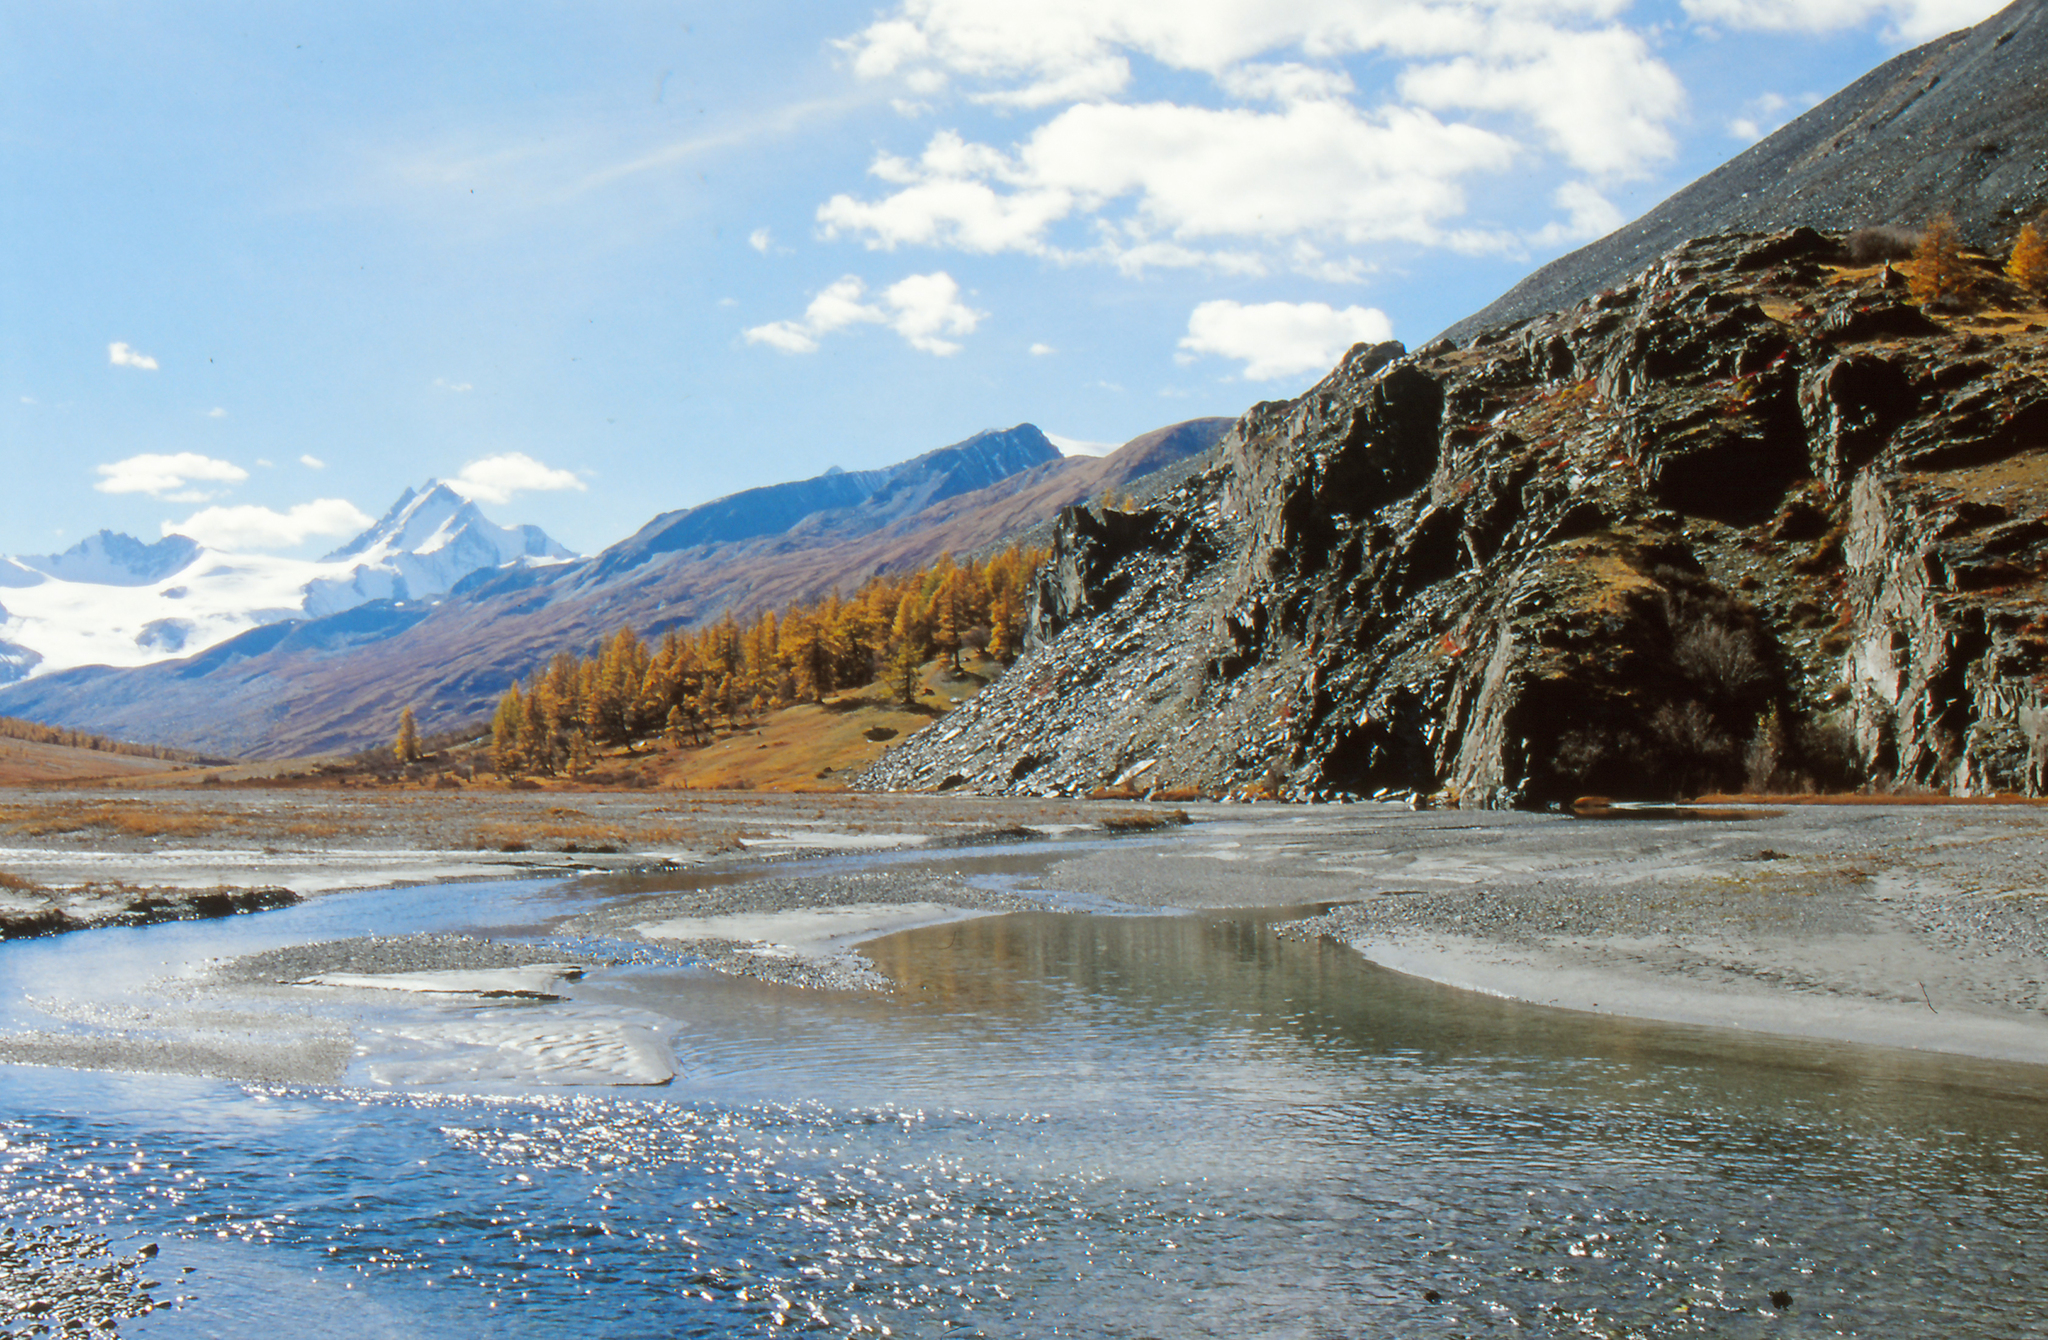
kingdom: Plantae
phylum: Tracheophyta
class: Pinopsida
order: Pinales
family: Pinaceae
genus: Larix
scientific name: Larix sibirica
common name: Siberian larch
